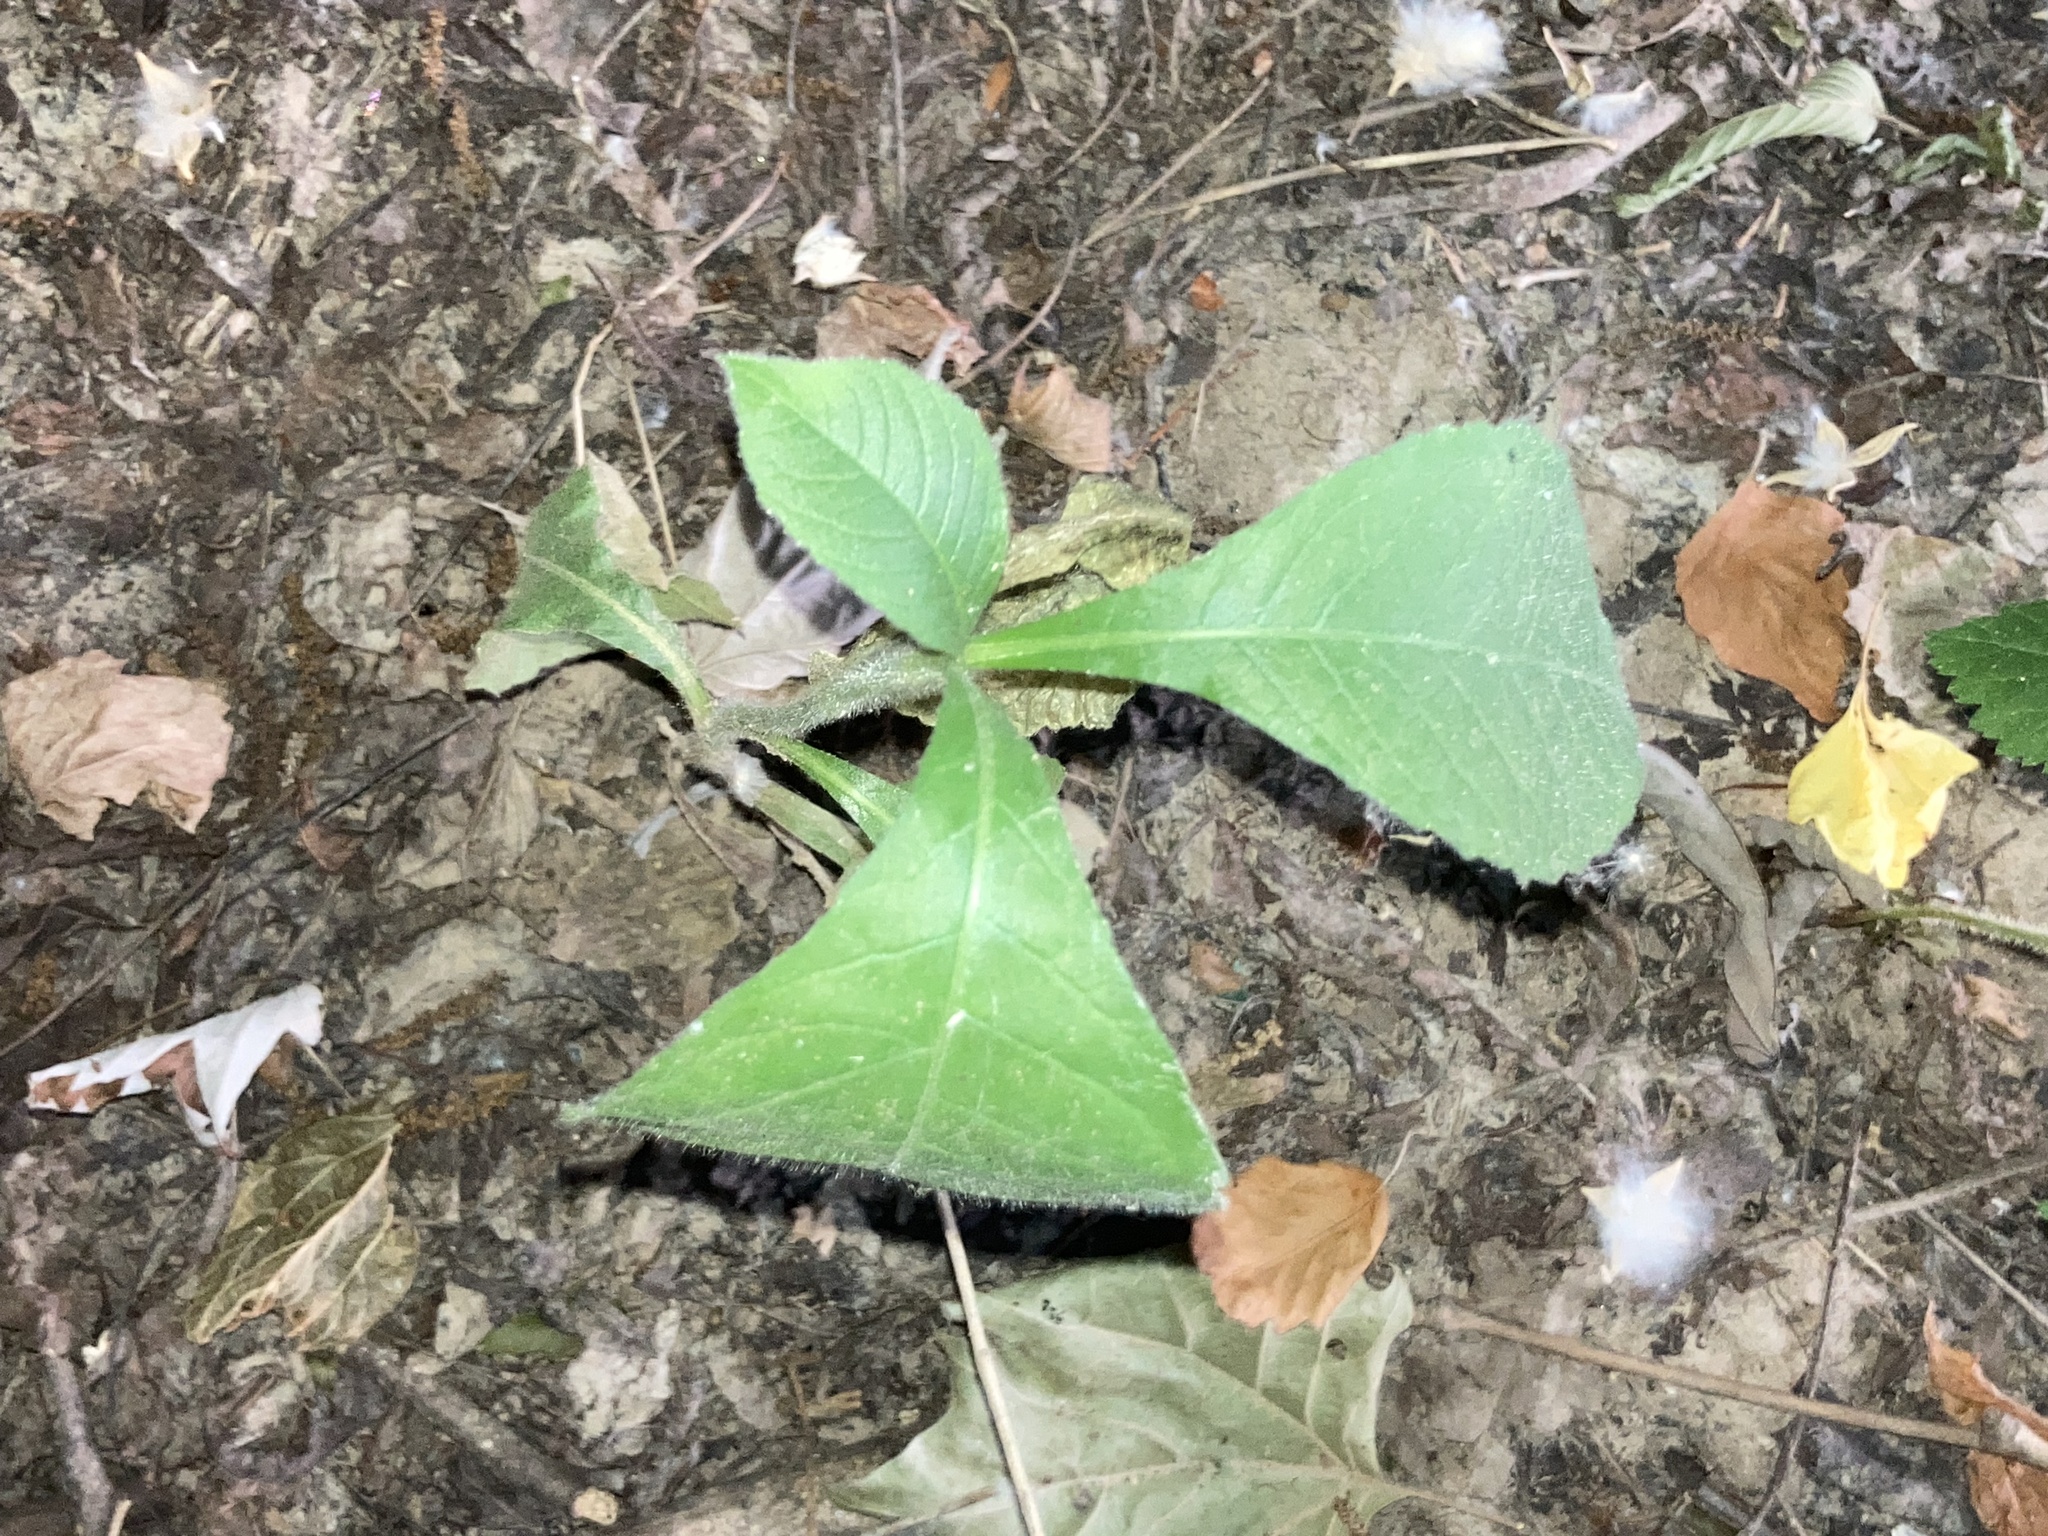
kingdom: Plantae
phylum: Tracheophyta
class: Magnoliopsida
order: Asterales
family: Asteraceae
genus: Elephantopus
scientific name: Elephantopus carolinianus
